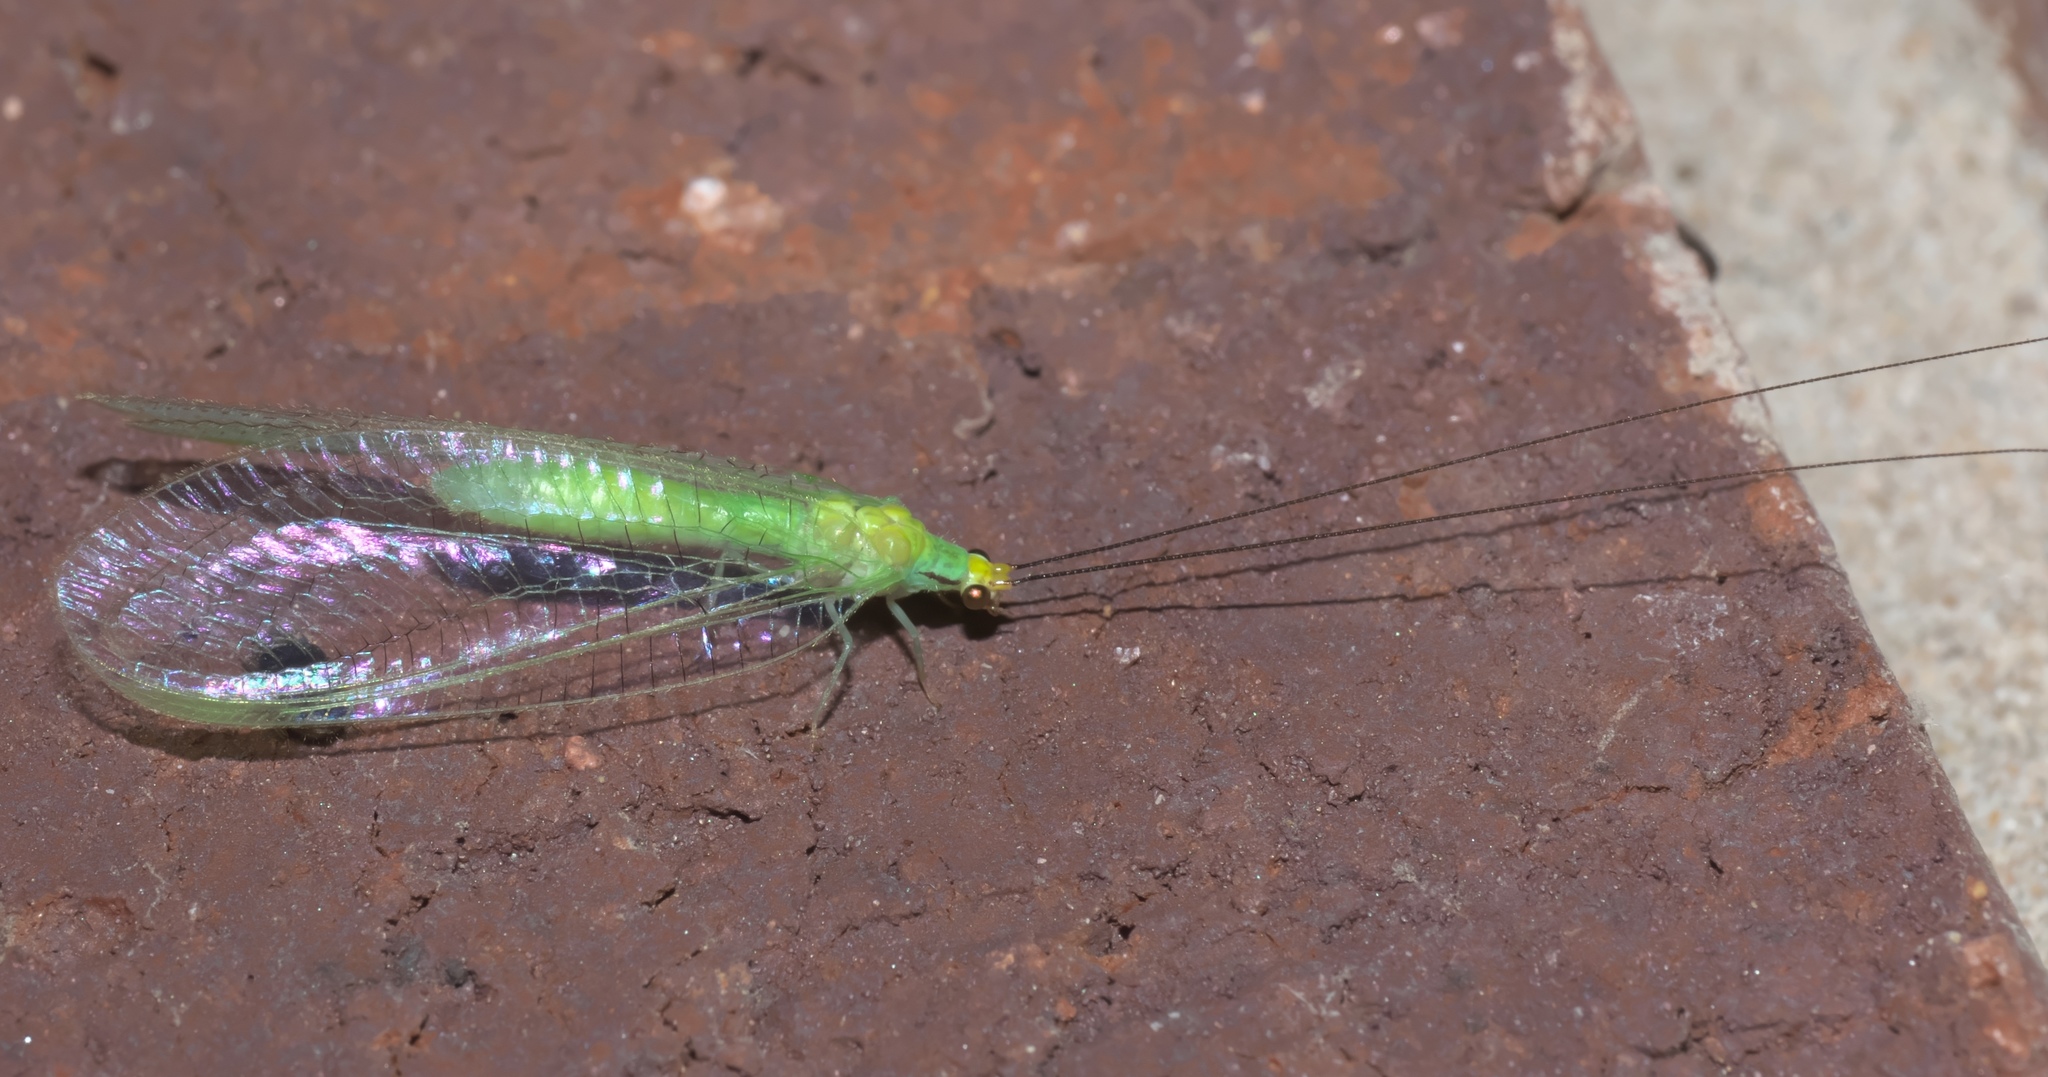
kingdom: Animalia
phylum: Arthropoda
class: Insecta
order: Neuroptera
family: Chrysopidae
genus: Leucochrysa
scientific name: Leucochrysa pavida
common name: Lichen-carrying green lacewing
